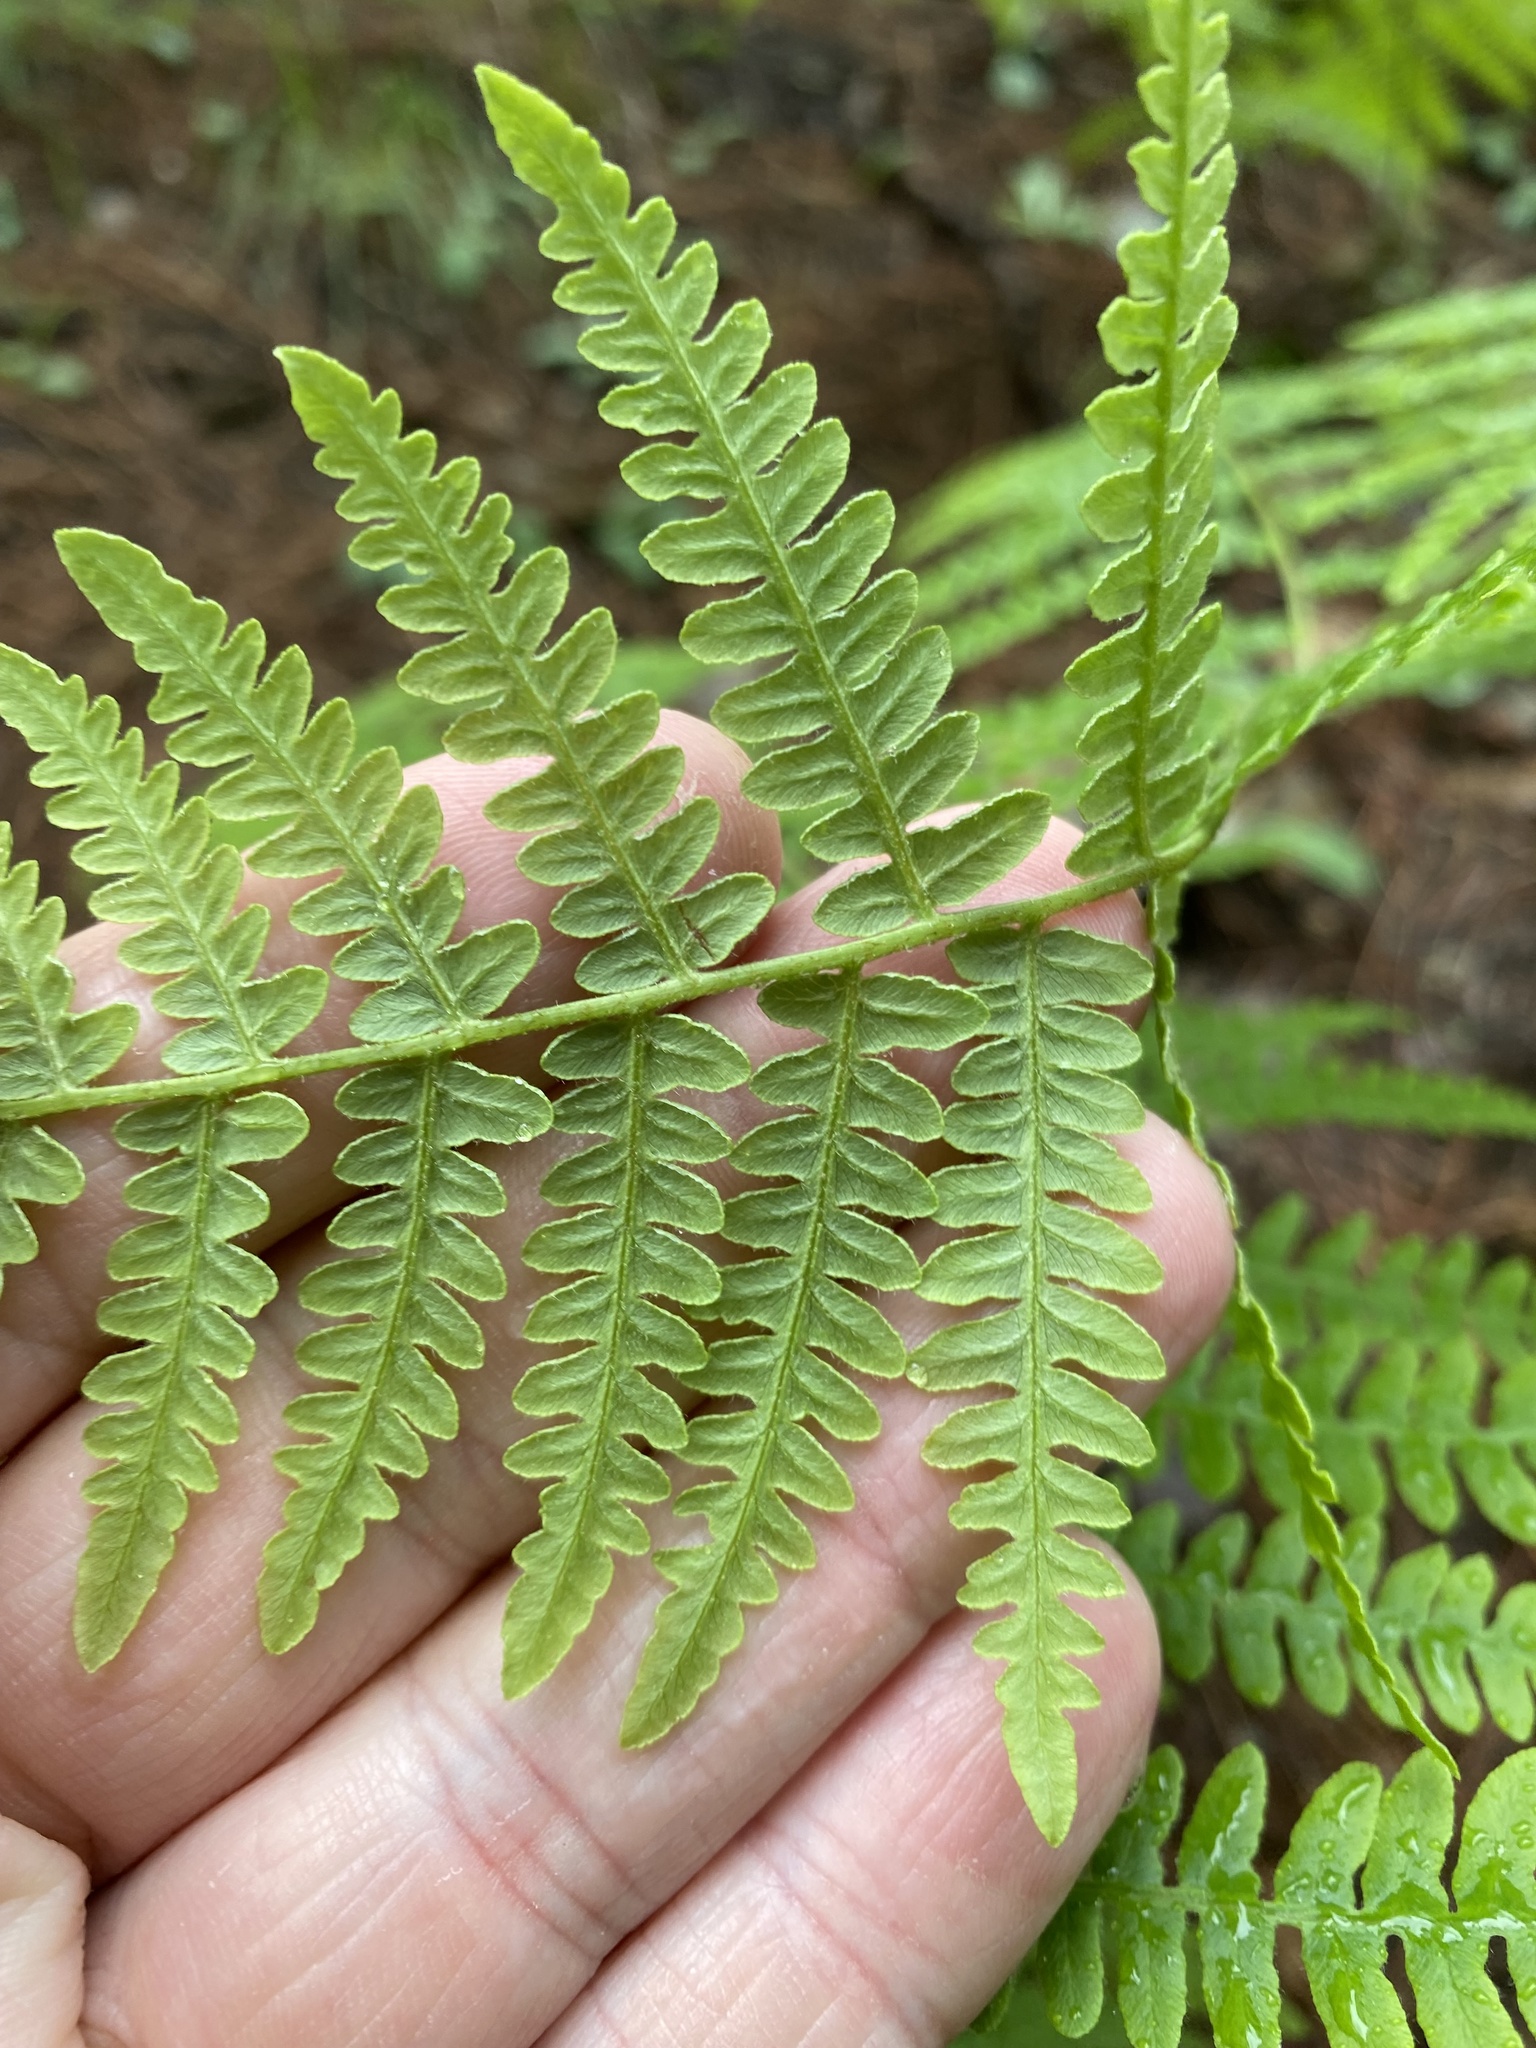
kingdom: Plantae
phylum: Tracheophyta
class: Polypodiopsida
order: Polypodiales
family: Dennstaedtiaceae
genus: Pteridium
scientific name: Pteridium aquilinum
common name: Bracken
